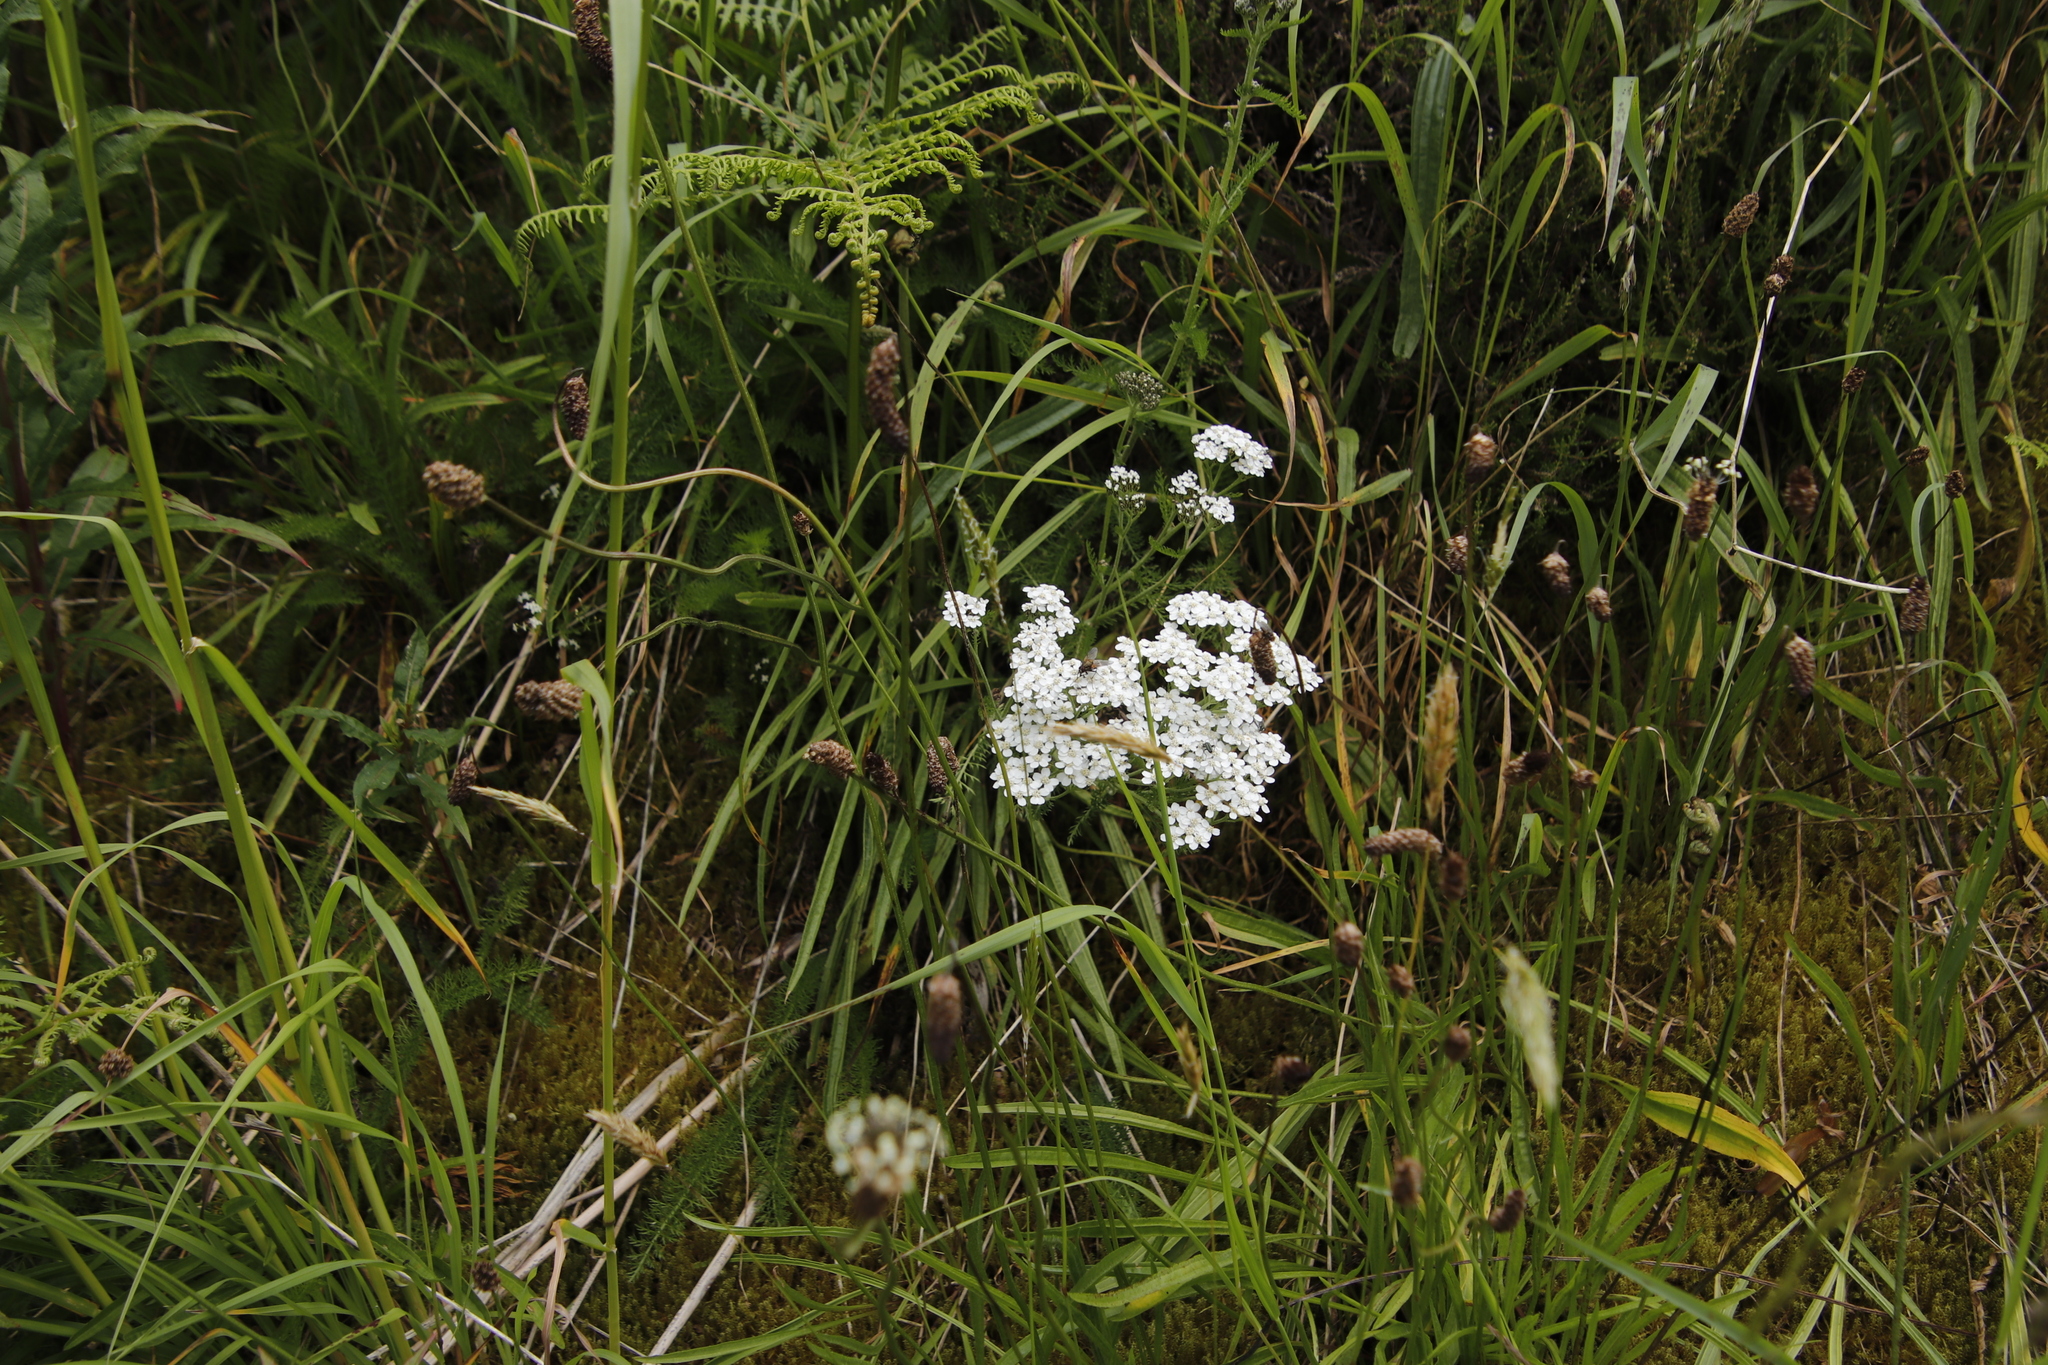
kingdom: Plantae
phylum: Tracheophyta
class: Magnoliopsida
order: Asterales
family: Asteraceae
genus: Achillea
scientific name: Achillea millefolium
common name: Yarrow
